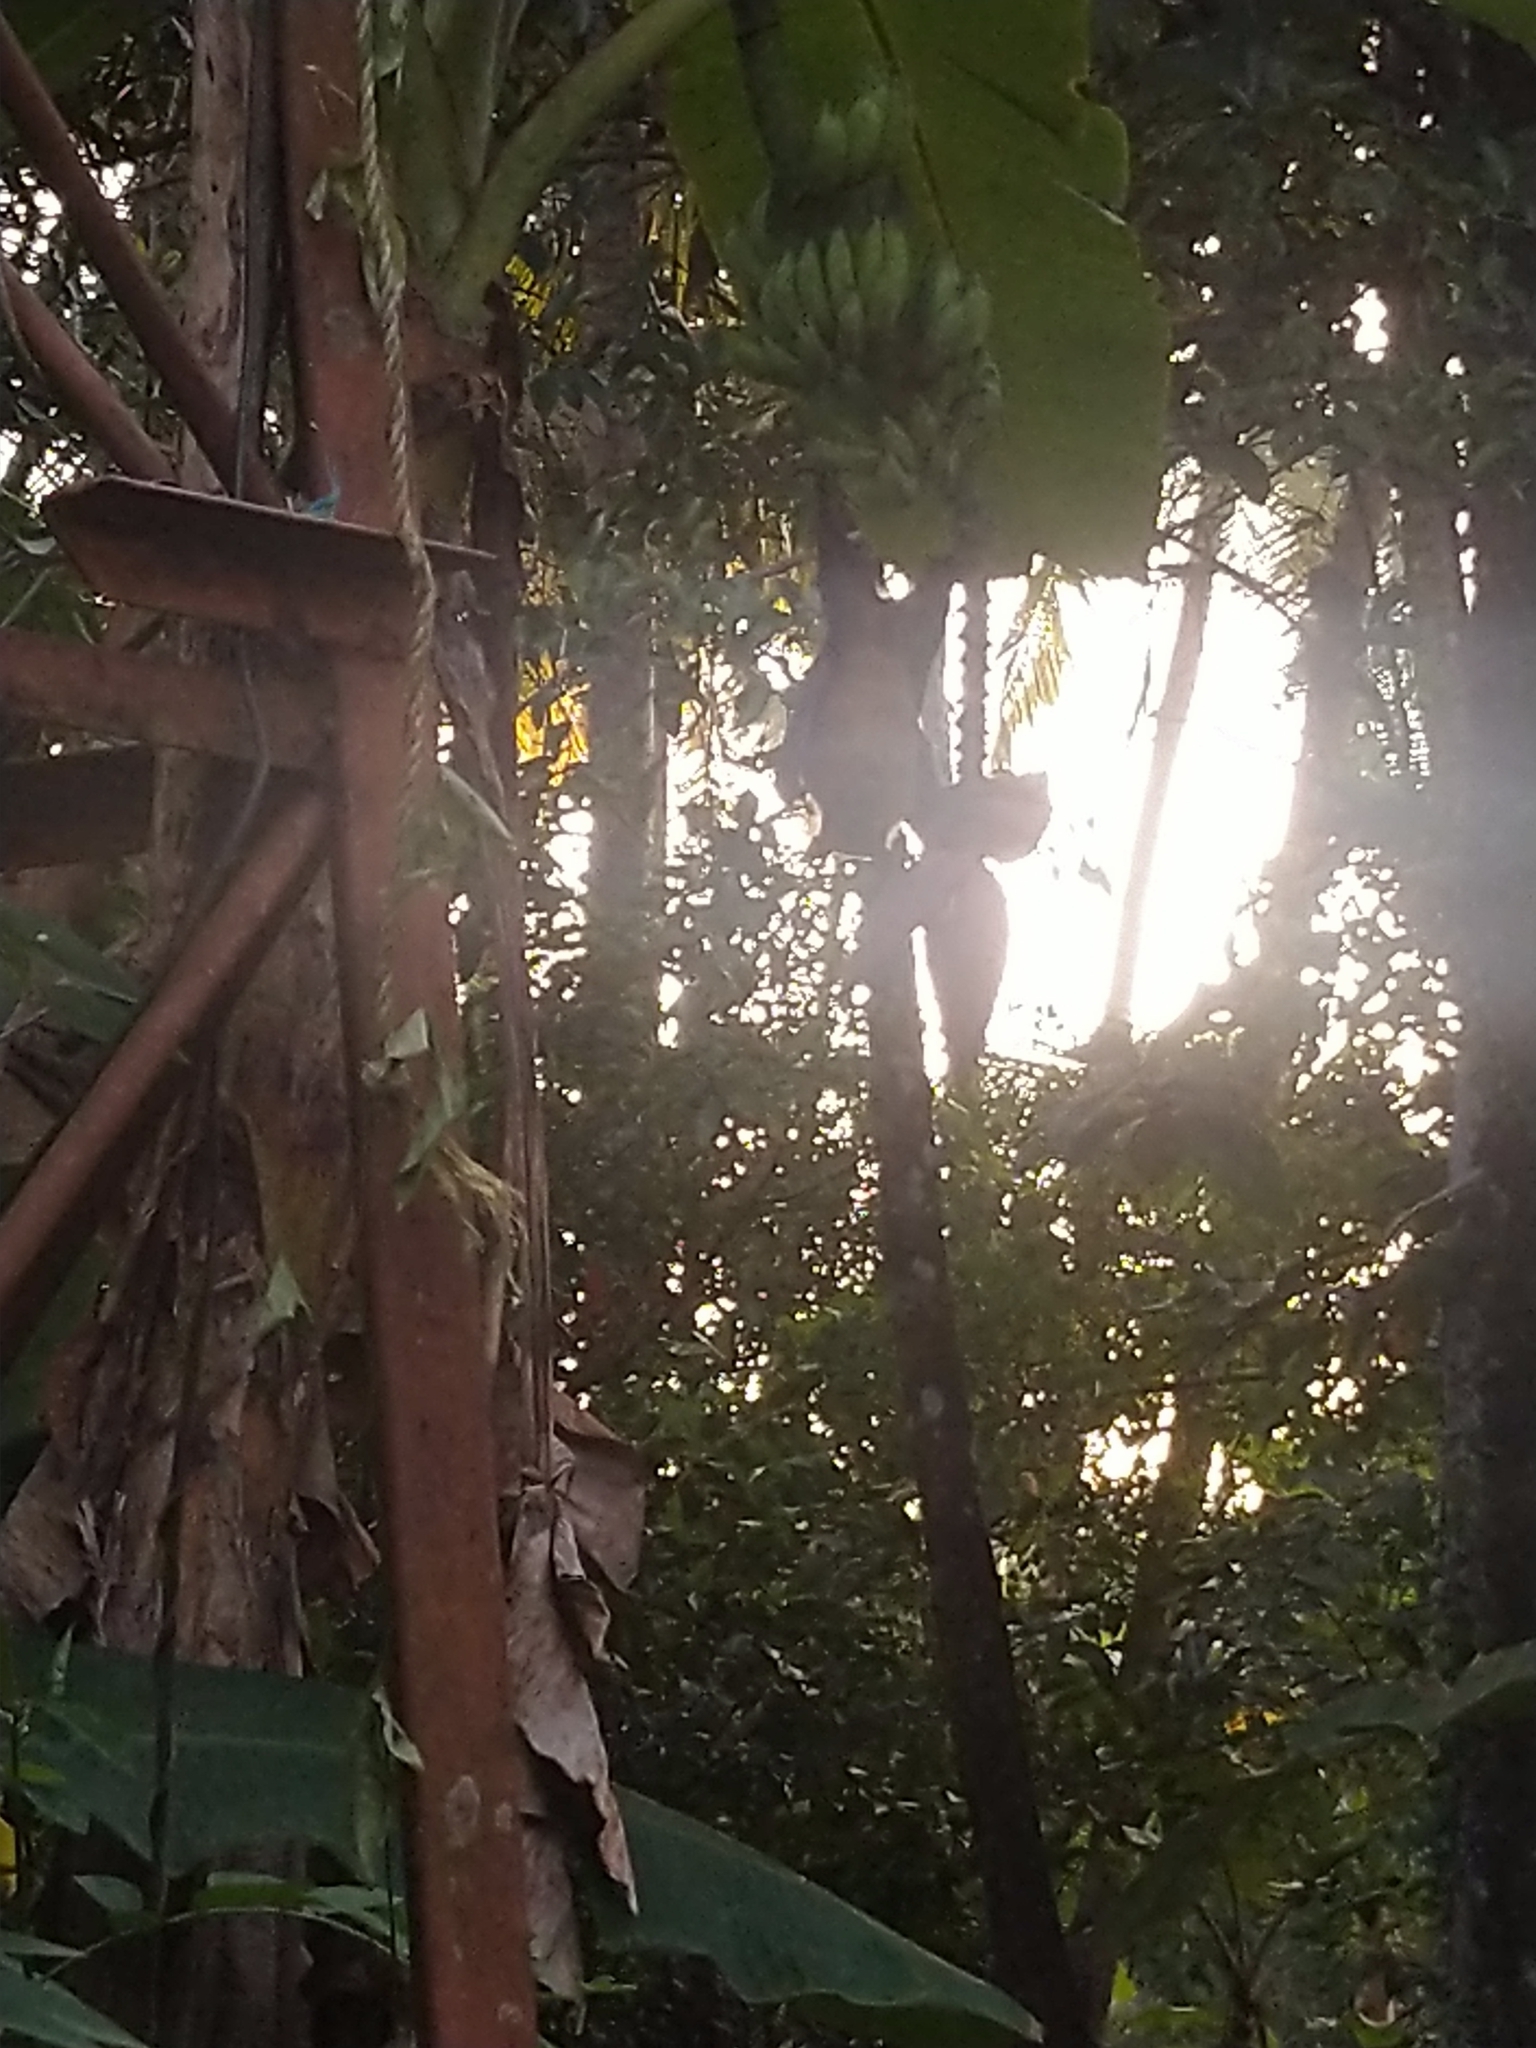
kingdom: Animalia
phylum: Chordata
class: Mammalia
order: Chiroptera
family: Pteropodidae
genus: Pteropus
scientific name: Pteropus vampyrus
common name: Large flying fox
